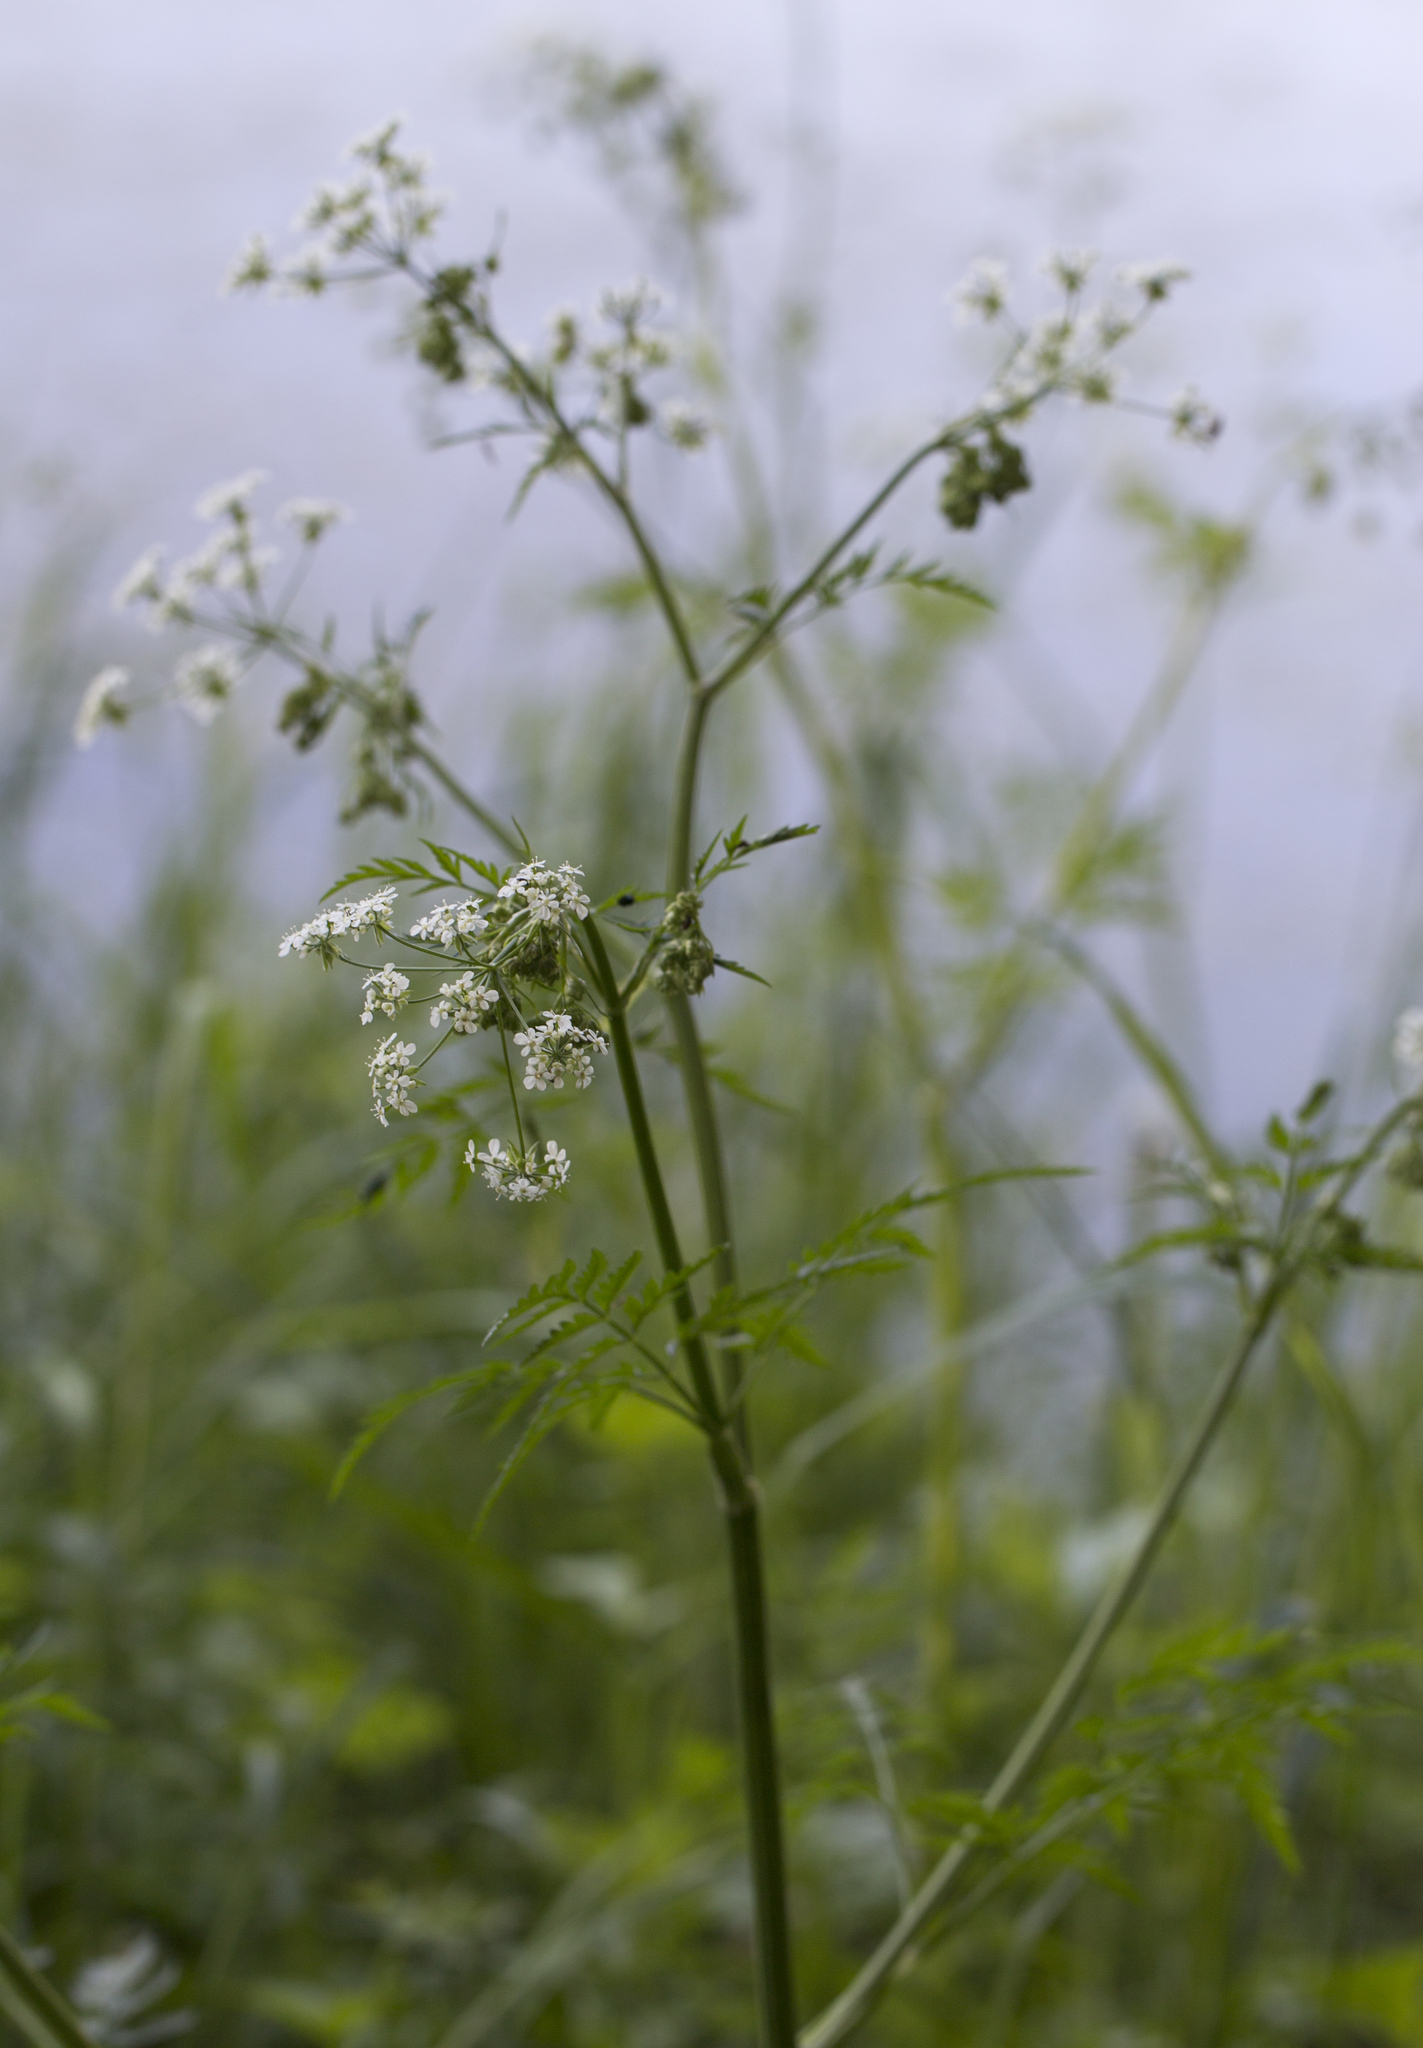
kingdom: Plantae
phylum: Tracheophyta
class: Magnoliopsida
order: Apiales
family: Apiaceae
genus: Anthriscus
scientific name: Anthriscus sylvestris
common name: Cow parsley
